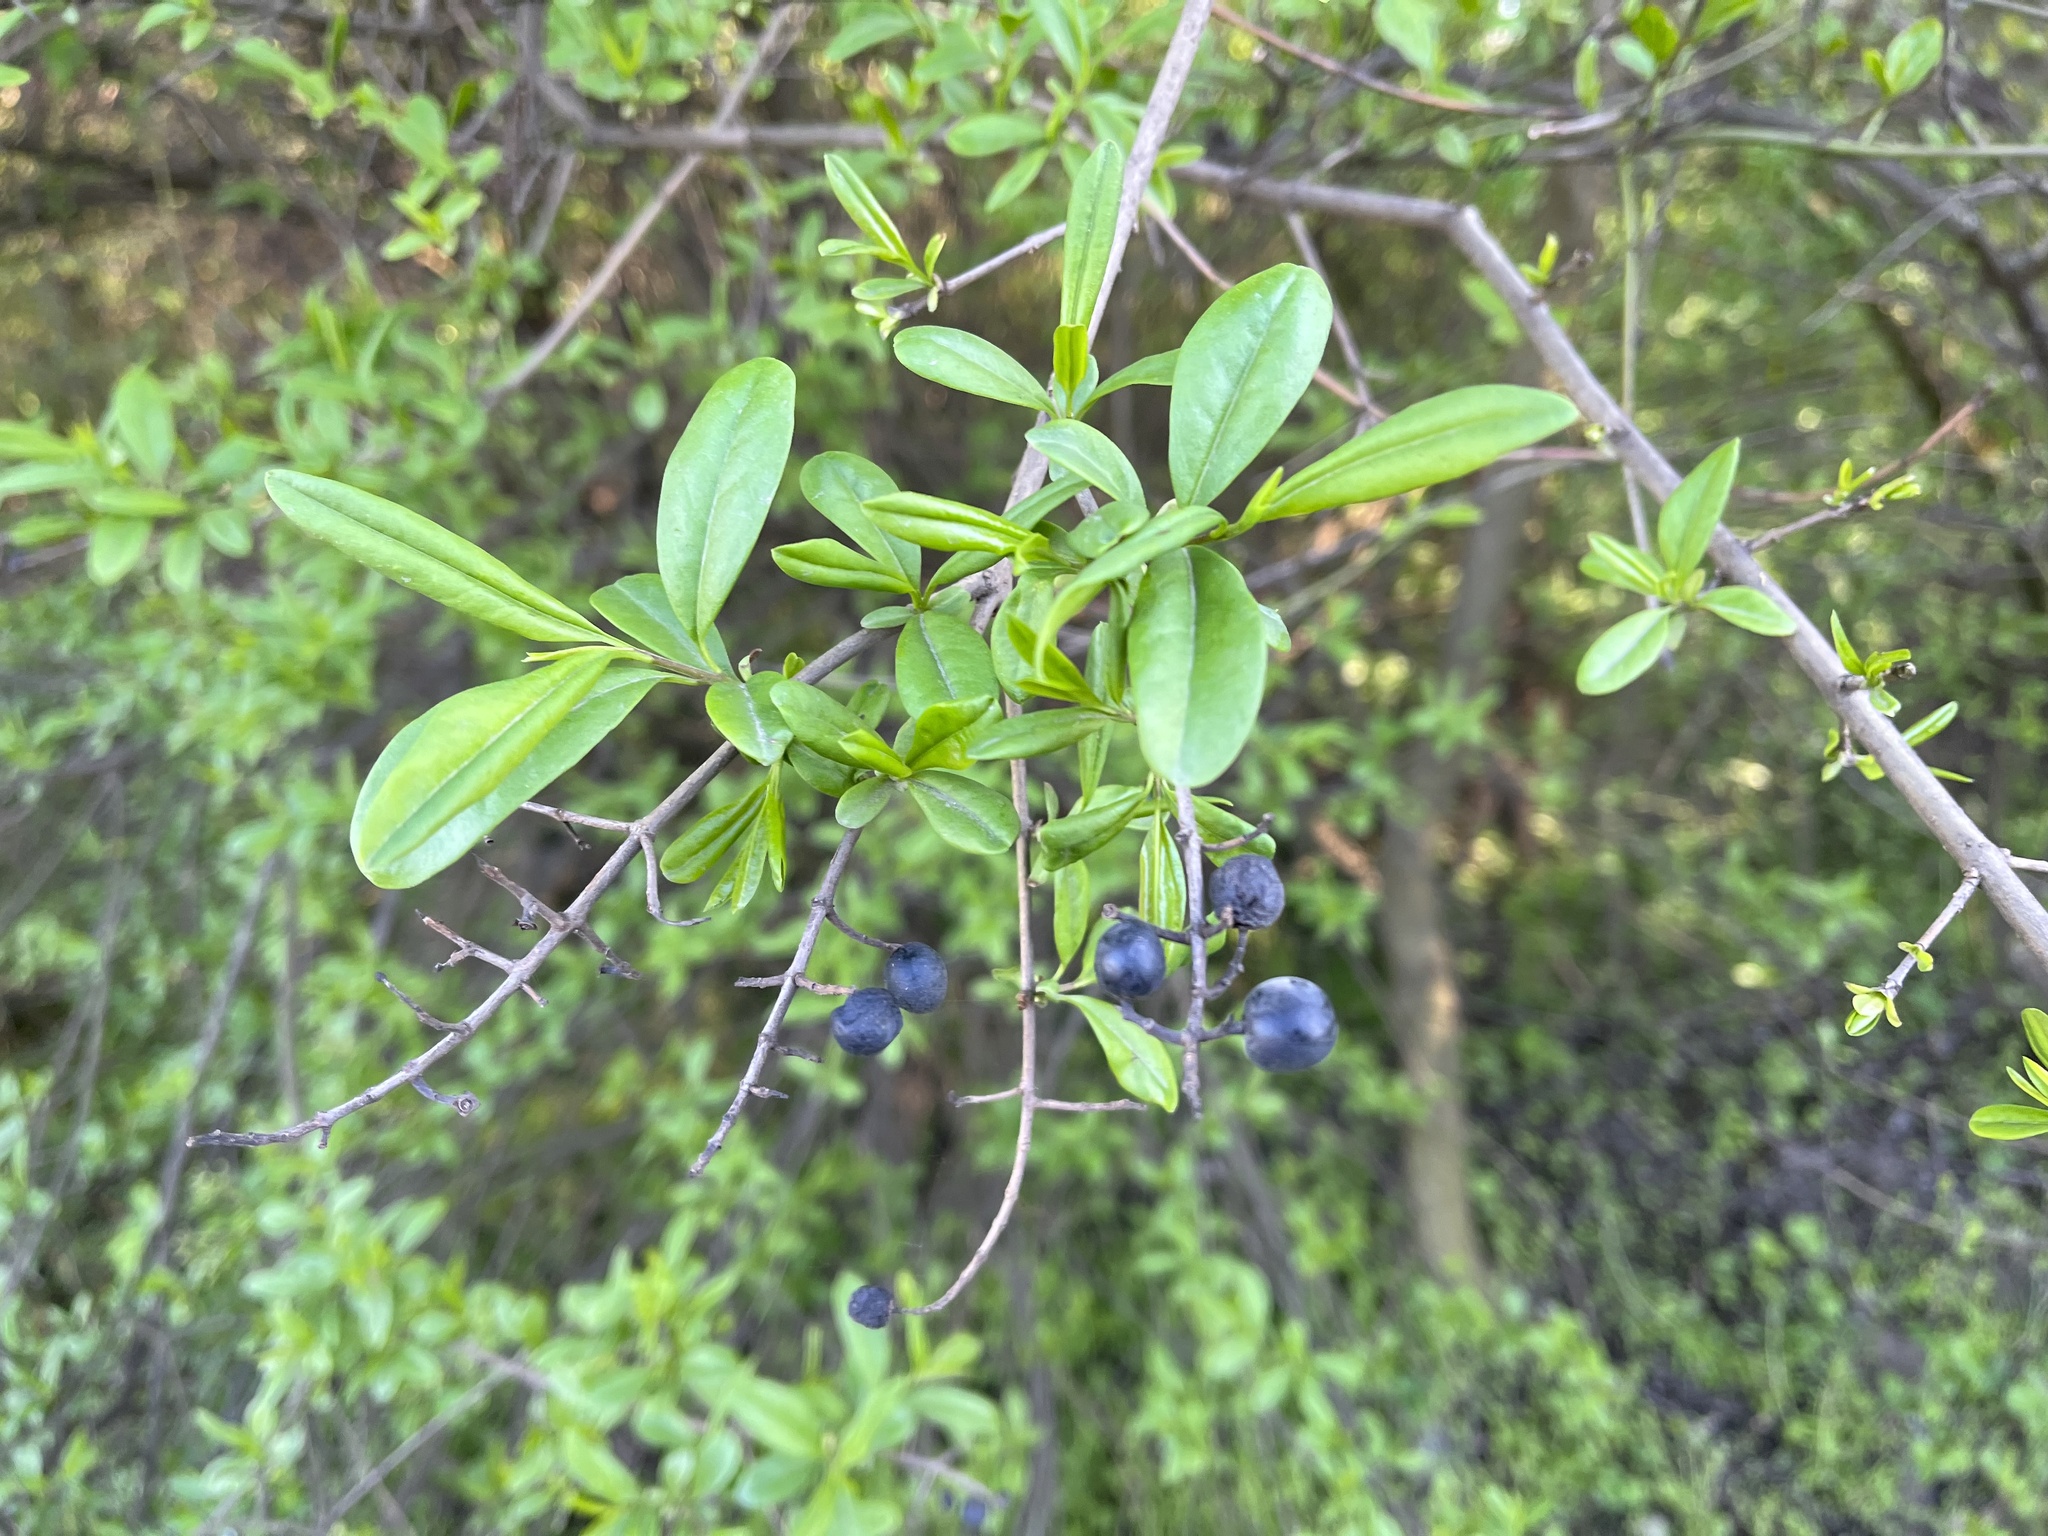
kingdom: Plantae
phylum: Tracheophyta
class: Magnoliopsida
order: Lamiales
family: Oleaceae
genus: Ligustrum
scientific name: Ligustrum vulgare
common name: Wild privet
